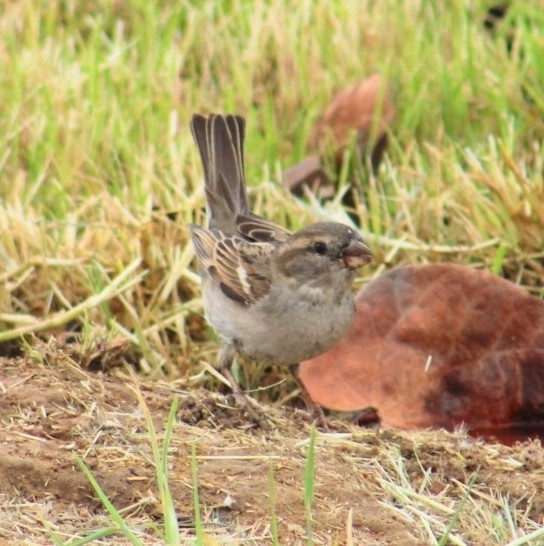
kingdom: Animalia
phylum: Chordata
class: Aves
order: Passeriformes
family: Passeridae
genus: Passer
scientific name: Passer domesticus
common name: House sparrow
